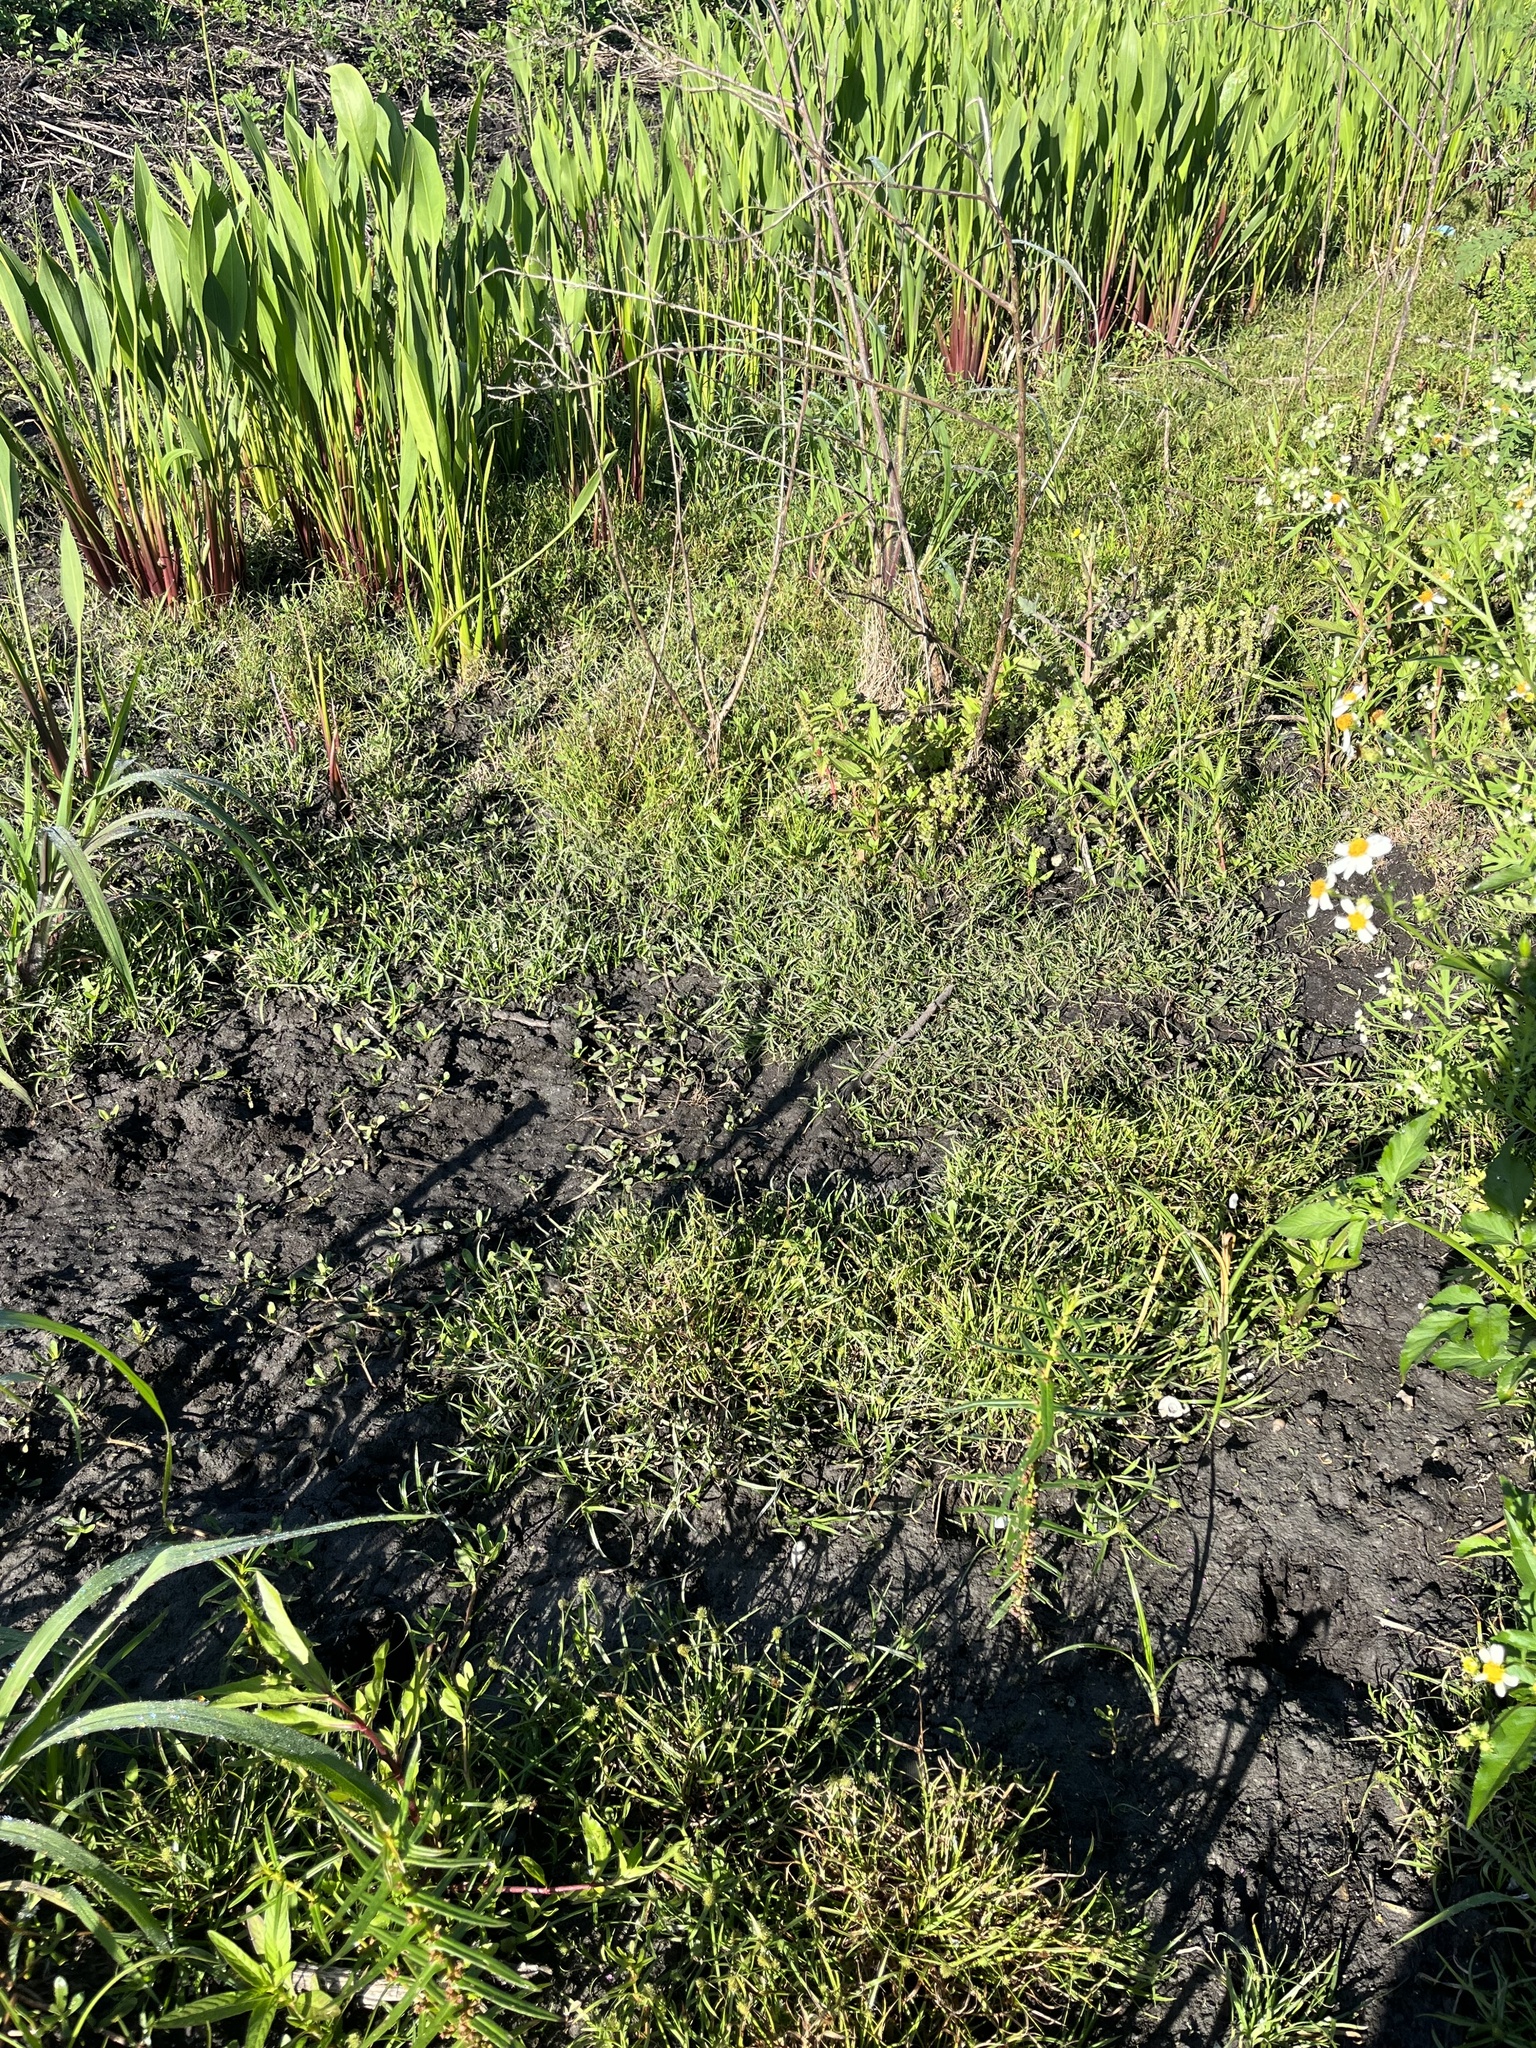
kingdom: Plantae
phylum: Tracheophyta
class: Liliopsida
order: Poales
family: Cyperaceae
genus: Cyperus
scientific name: Cyperus brevifolius
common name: Globe kyllinga
